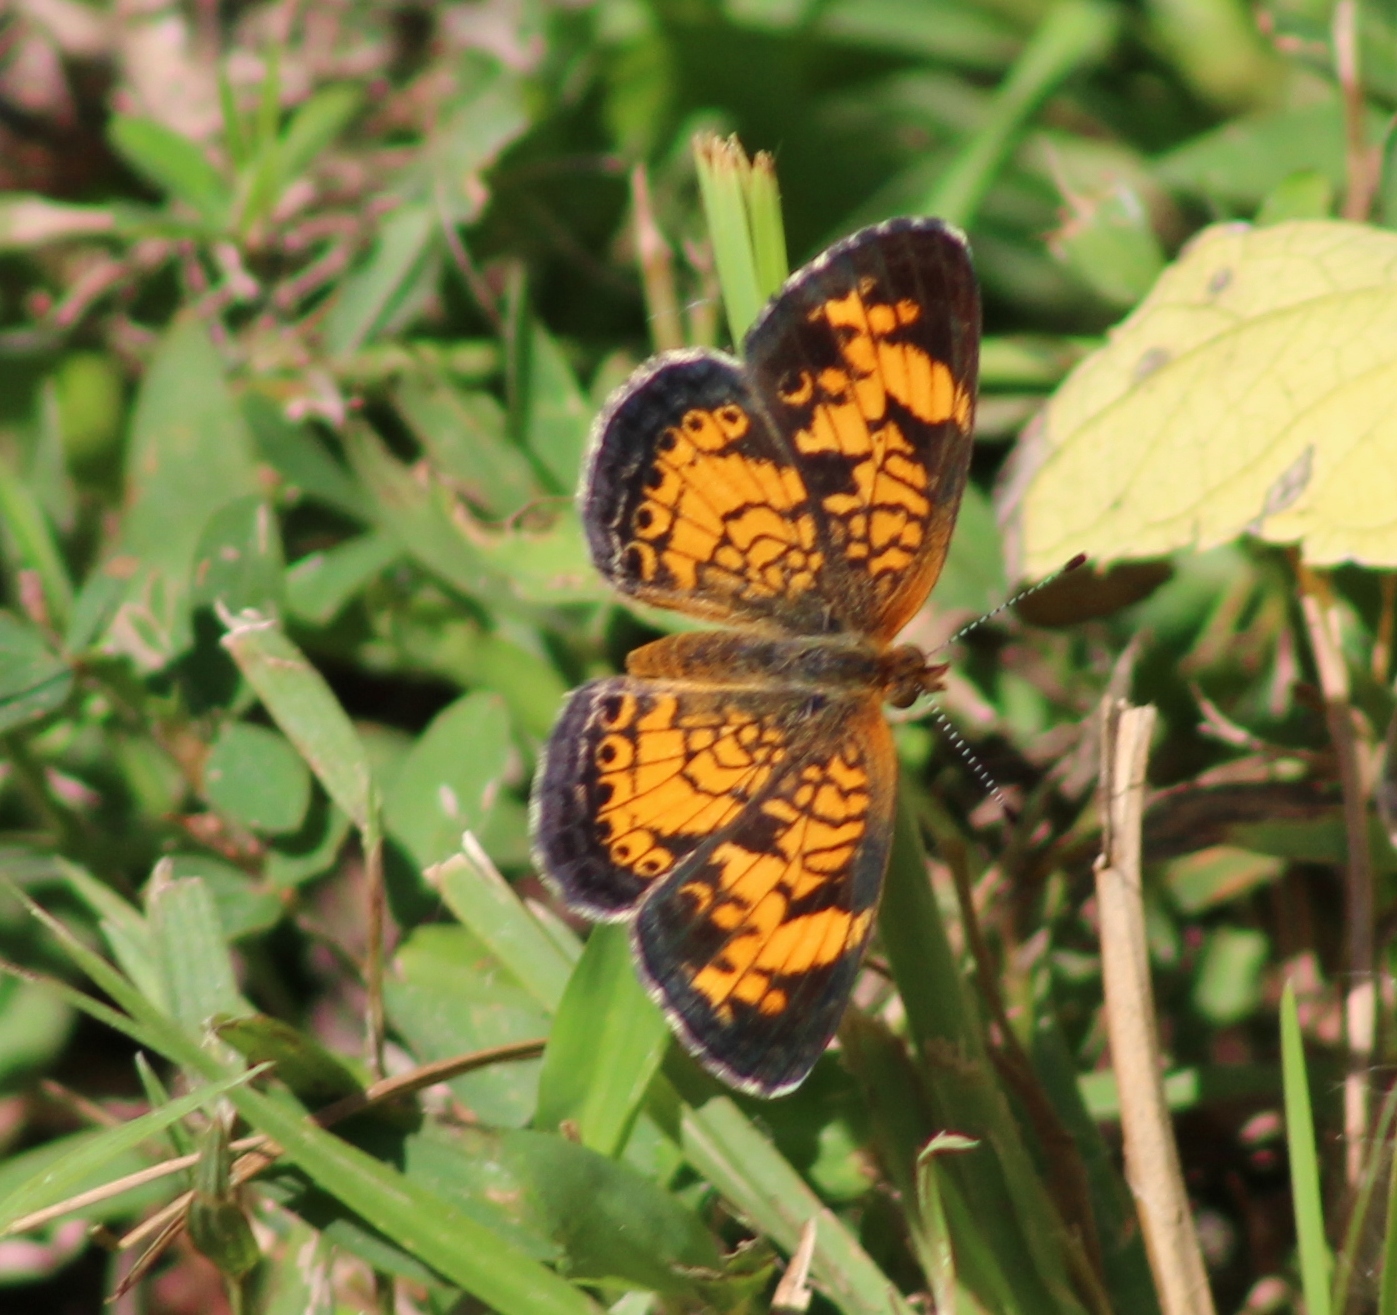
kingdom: Animalia
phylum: Arthropoda
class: Insecta
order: Lepidoptera
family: Nymphalidae
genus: Phyciodes
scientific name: Phyciodes tharos
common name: Pearl crescent
